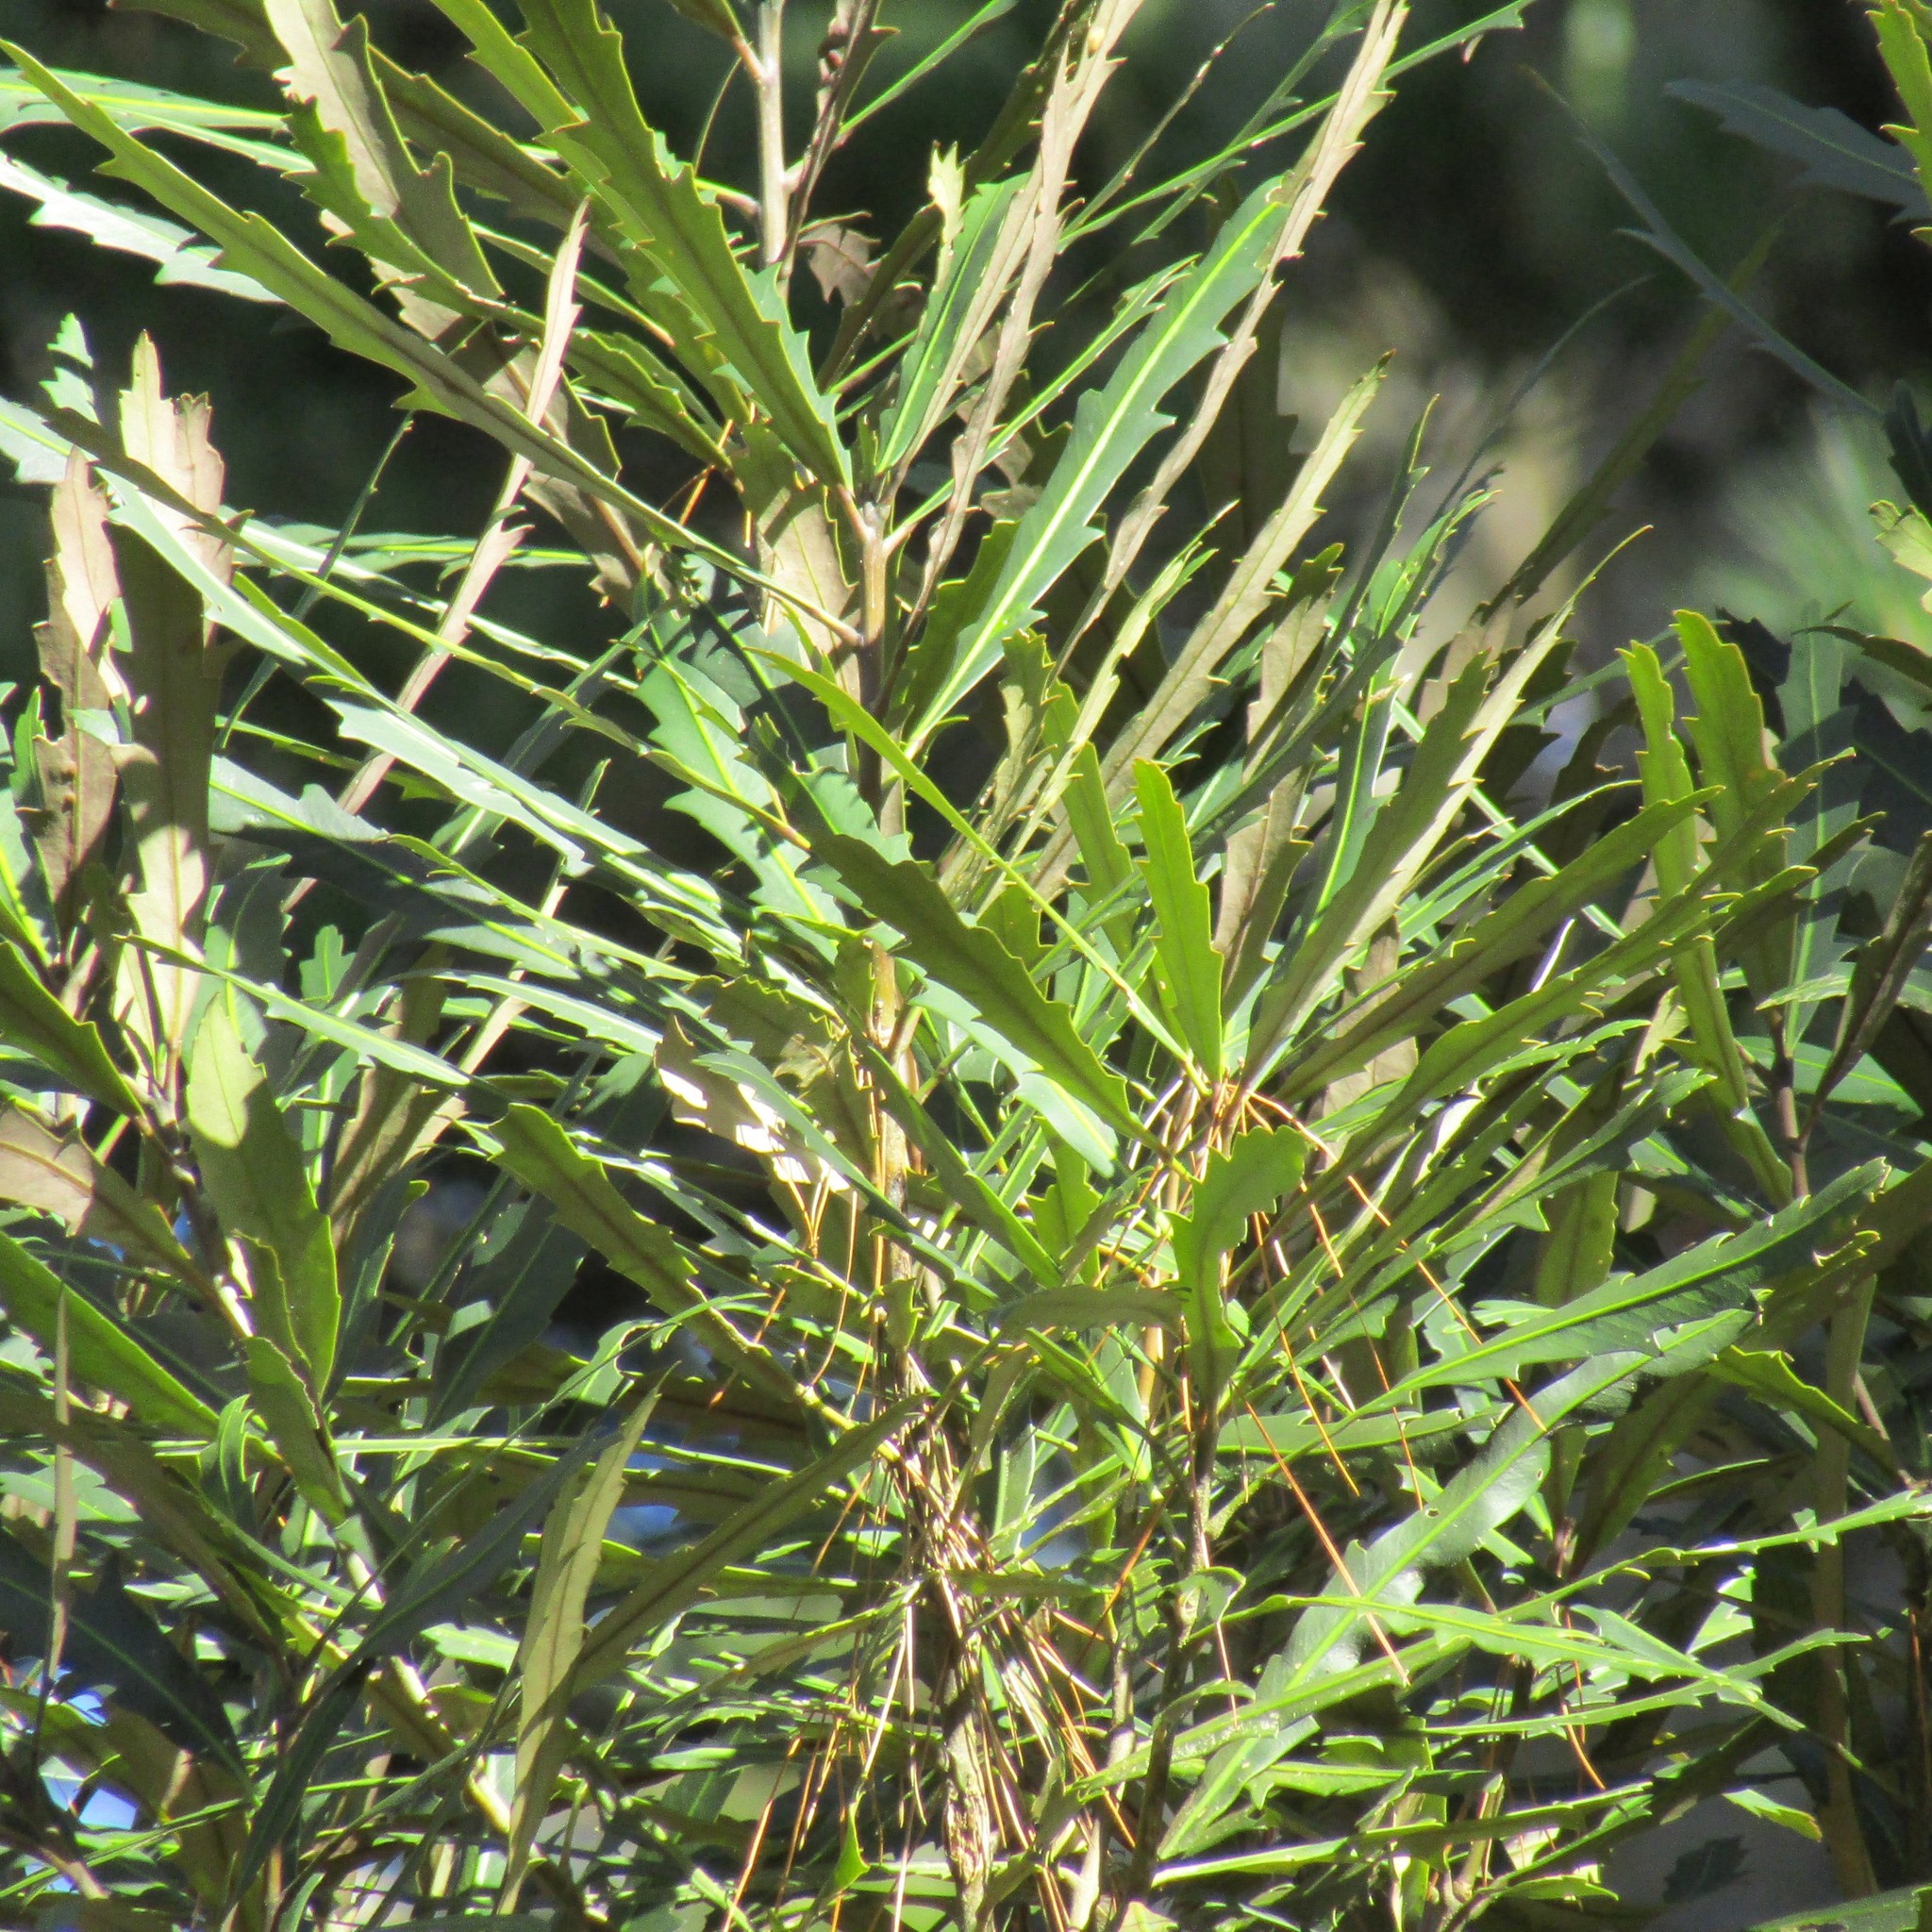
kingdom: Plantae
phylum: Tracheophyta
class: Magnoliopsida
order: Apiales
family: Araliaceae
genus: Pseudopanax
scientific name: Pseudopanax crassifolius
